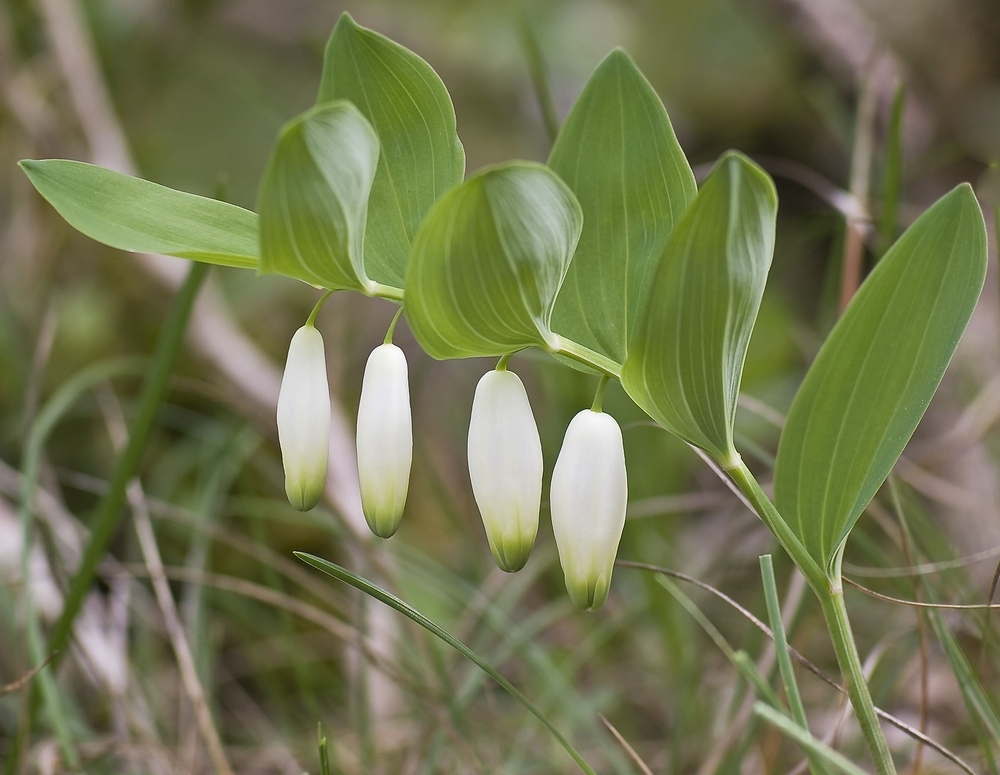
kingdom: Plantae
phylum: Tracheophyta
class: Liliopsida
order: Asparagales
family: Asparagaceae
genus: Polygonatum
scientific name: Polygonatum odoratum
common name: Angular solomon's-seal
